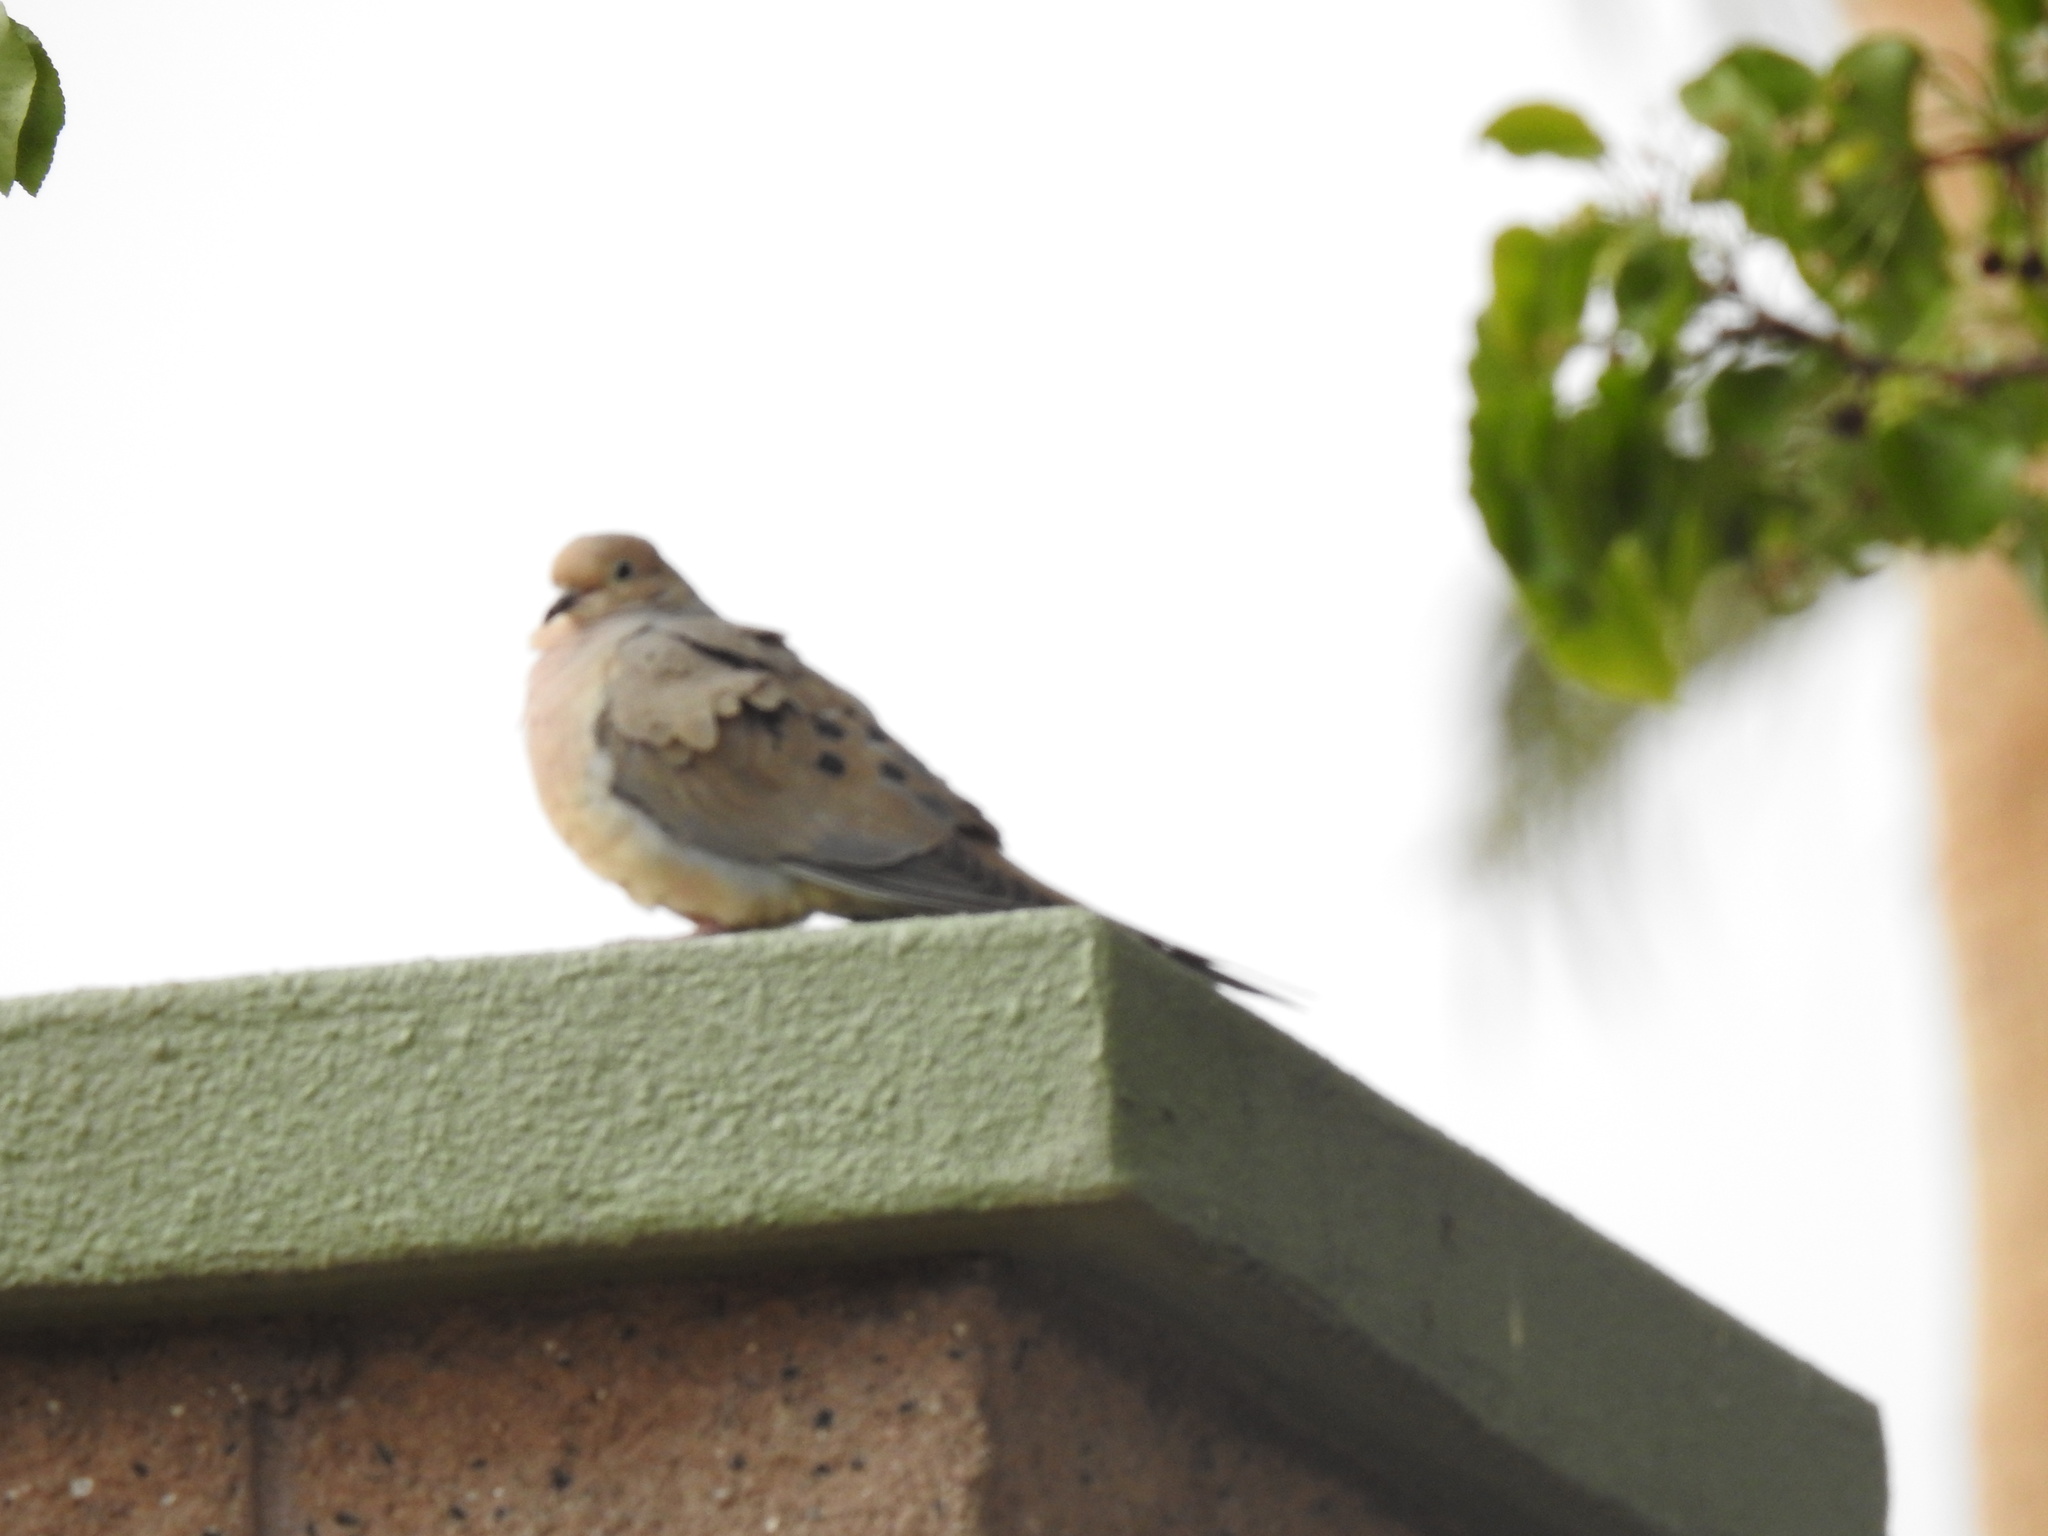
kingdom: Animalia
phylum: Chordata
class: Aves
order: Columbiformes
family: Columbidae
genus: Zenaida
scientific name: Zenaida macroura
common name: Mourning dove
